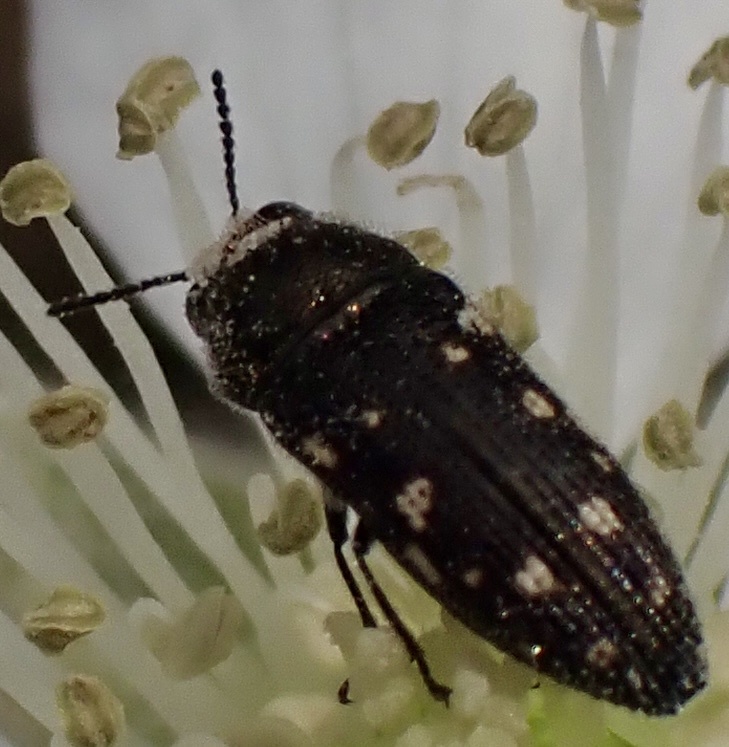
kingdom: Animalia
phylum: Arthropoda
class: Insecta
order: Coleoptera
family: Buprestidae
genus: Acmaeodera
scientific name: Acmaeodera tubulus
